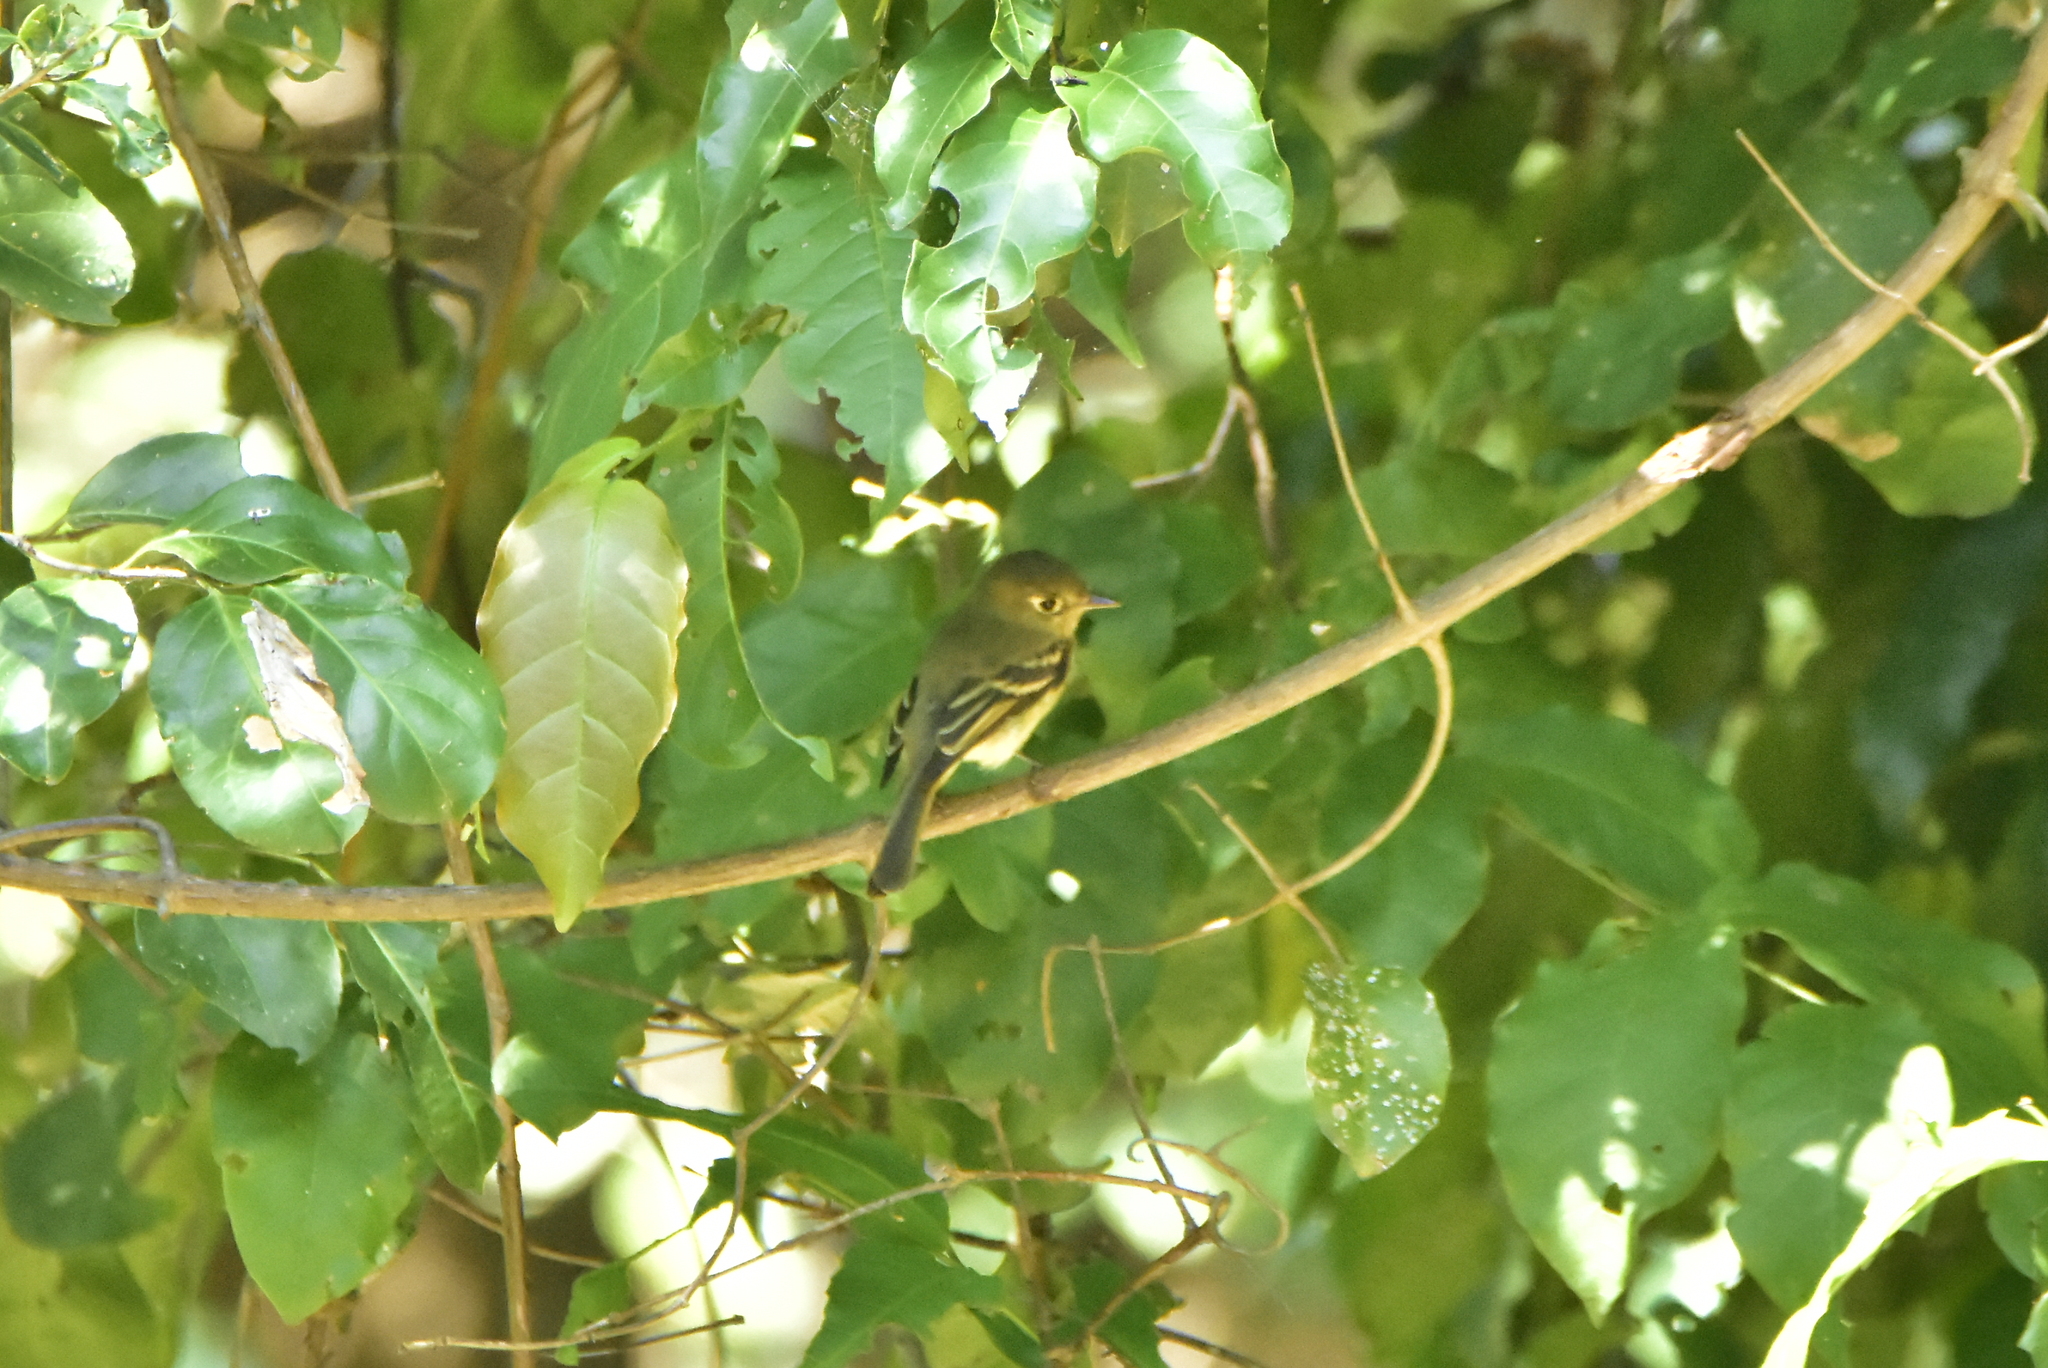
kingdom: Animalia
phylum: Chordata
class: Aves
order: Passeriformes
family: Tyrannidae
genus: Empidonax
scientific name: Empidonax difficilis
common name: Pacific-slope flycatcher
